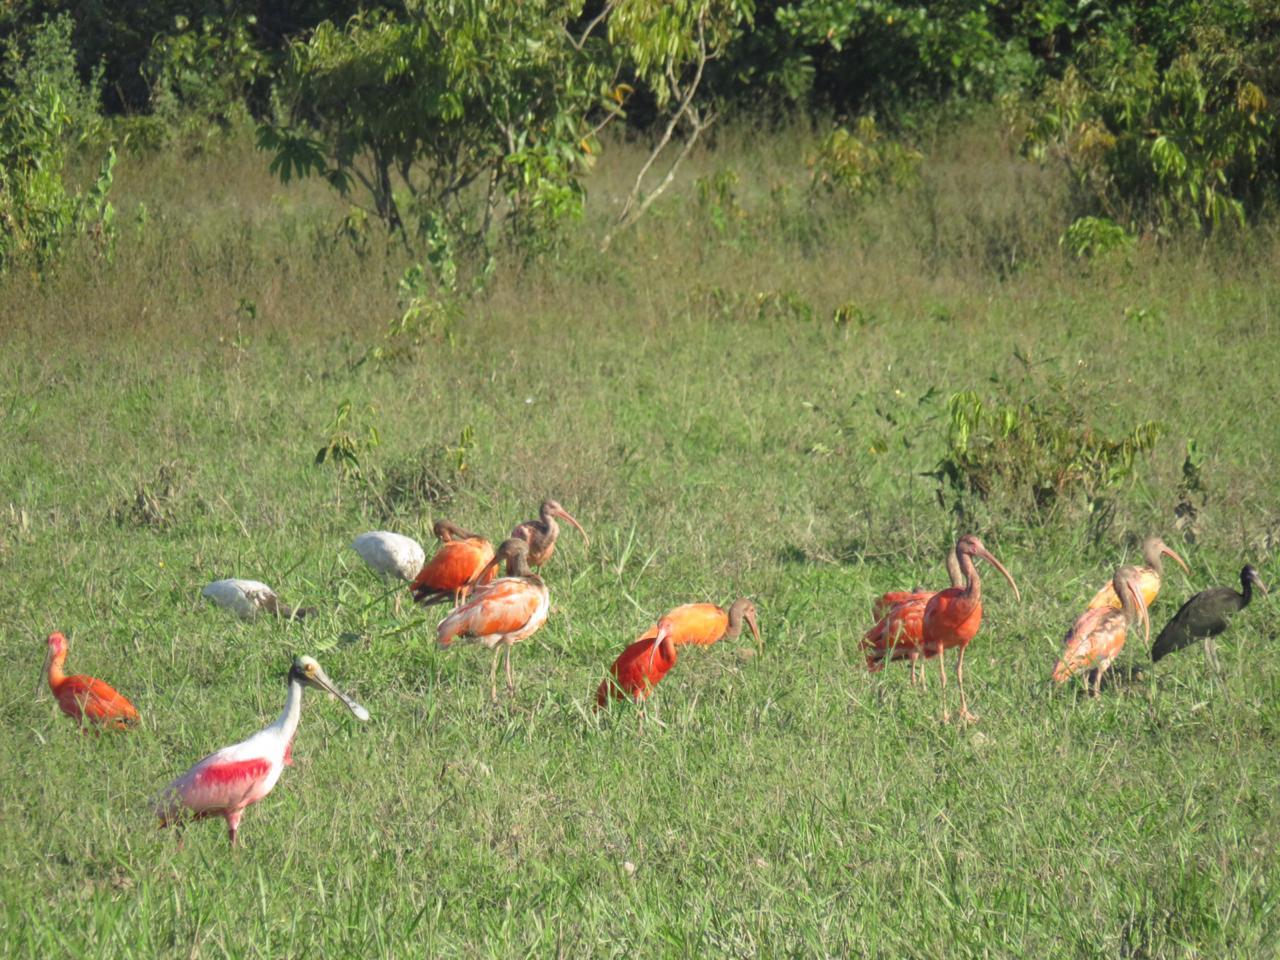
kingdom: Animalia
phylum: Chordata
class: Aves
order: Pelecaniformes
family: Threskiornithidae
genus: Eudocimus
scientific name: Eudocimus albus
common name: White ibis
